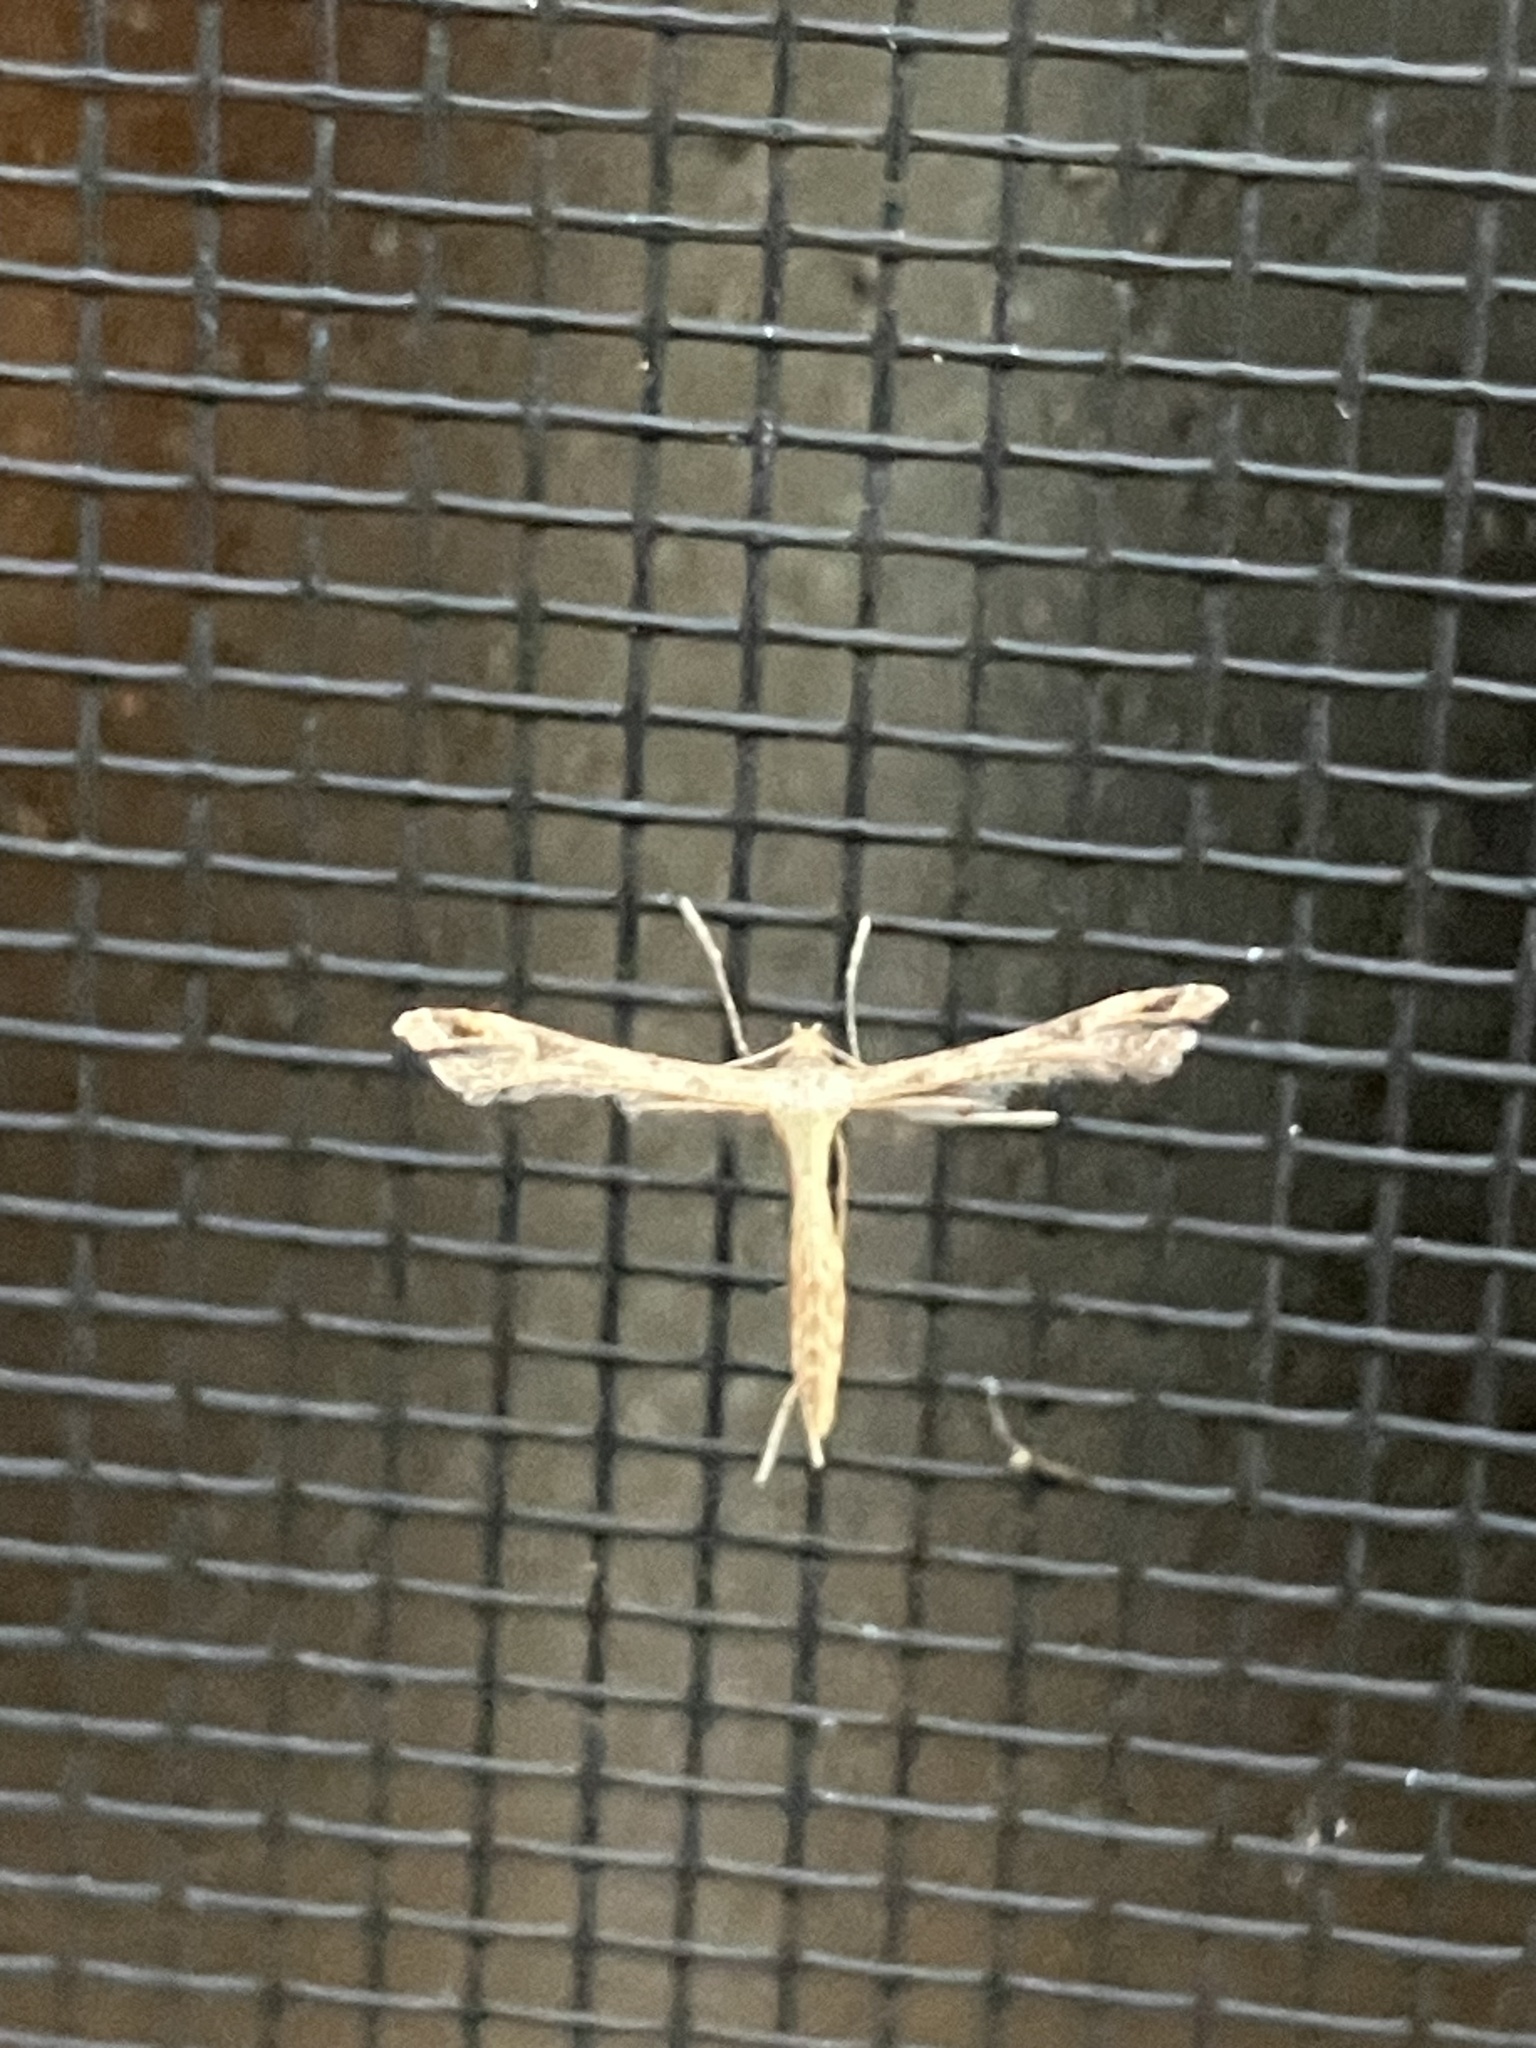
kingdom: Animalia
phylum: Arthropoda
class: Insecta
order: Lepidoptera
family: Pterophoridae
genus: Stenoptilodes
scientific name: Stenoptilodes
